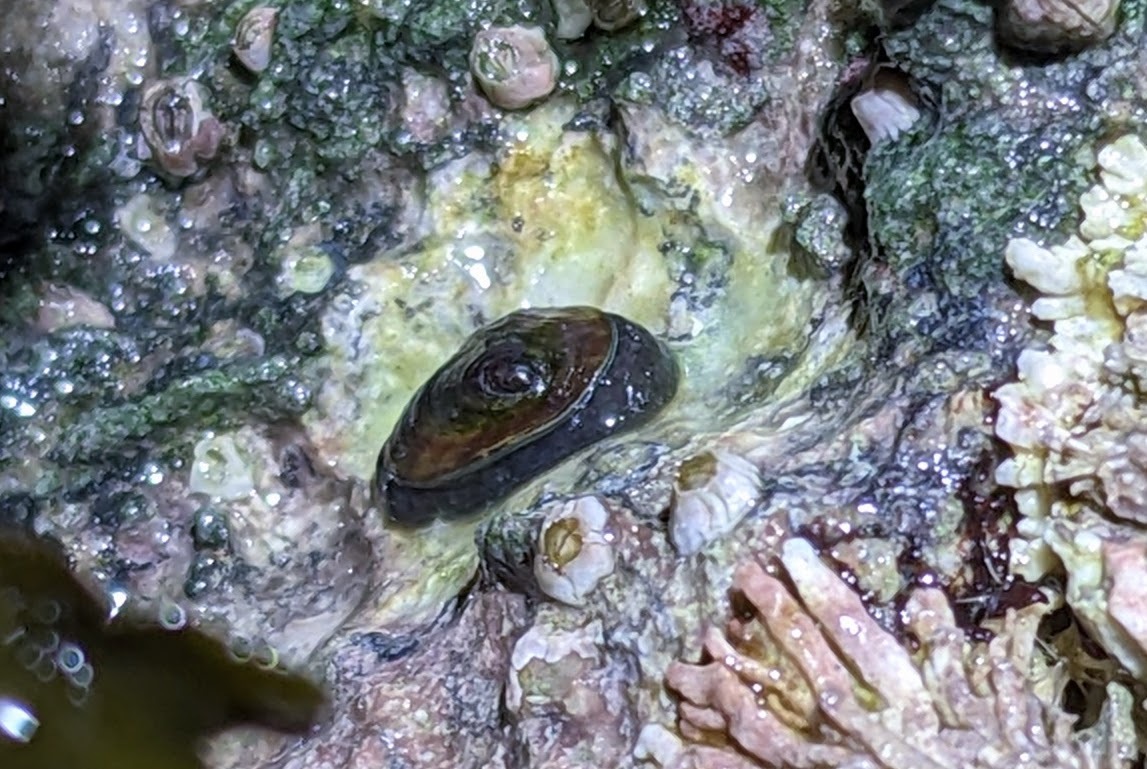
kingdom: Animalia
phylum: Mollusca
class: Gastropoda
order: Siphonariida
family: Siphonariidae
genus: Siphonaria
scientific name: Siphonaria thersites
